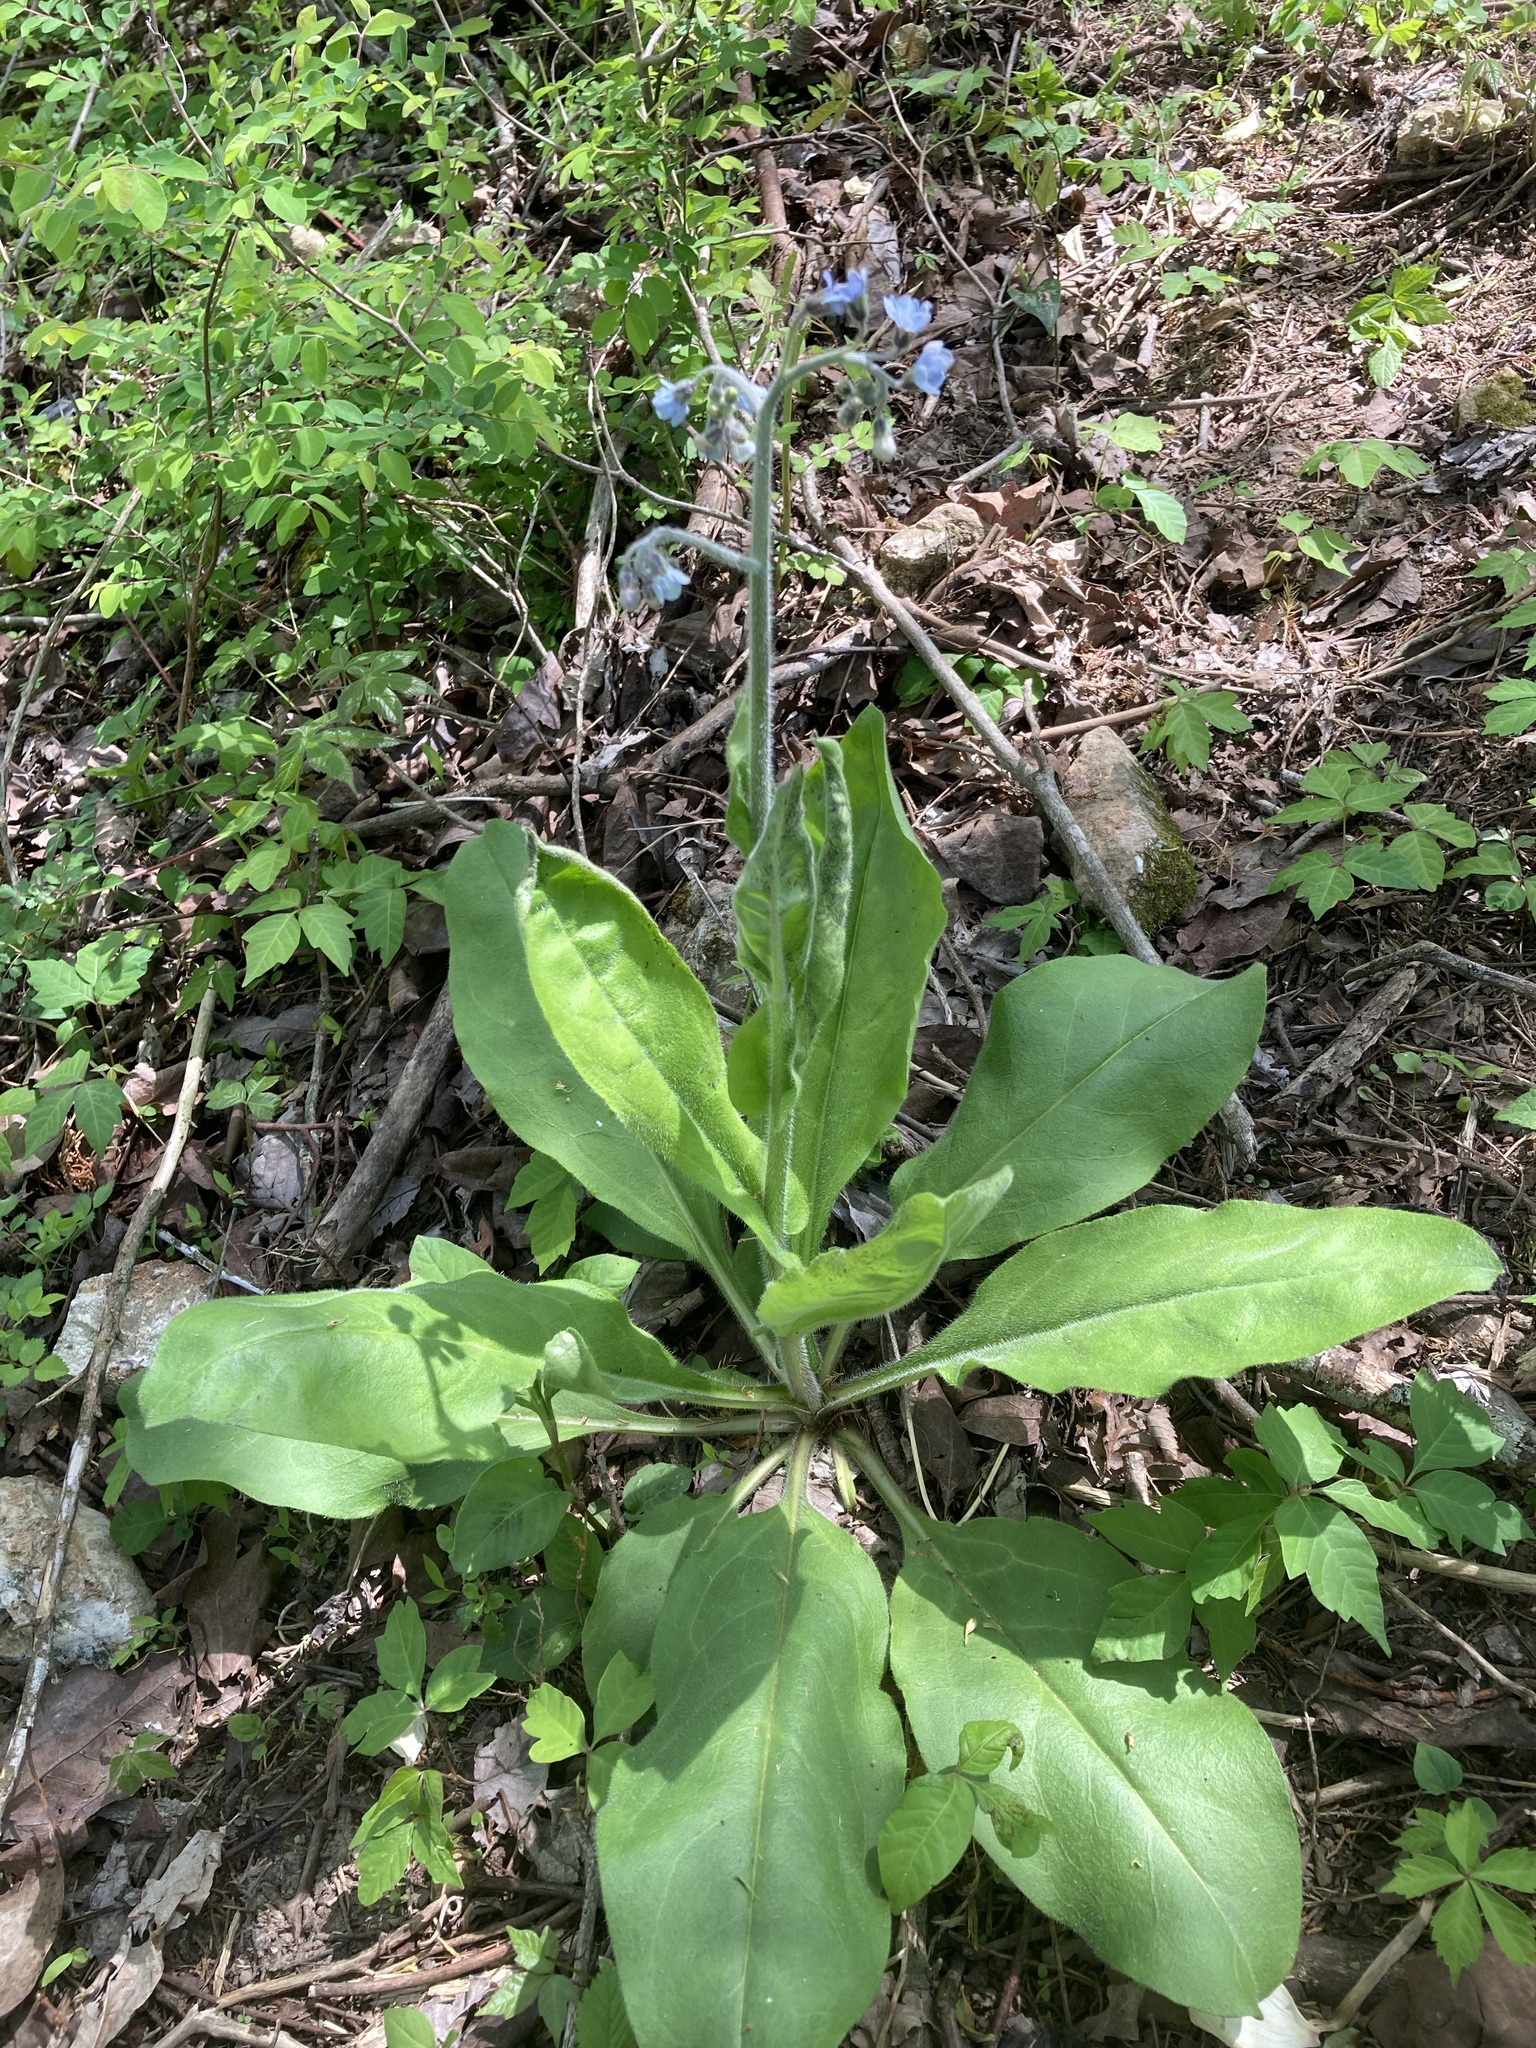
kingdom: Plantae
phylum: Tracheophyta
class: Magnoliopsida
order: Boraginales
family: Boraginaceae
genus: Andersonglossum
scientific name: Andersonglossum virginianum
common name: Wild comfrey
